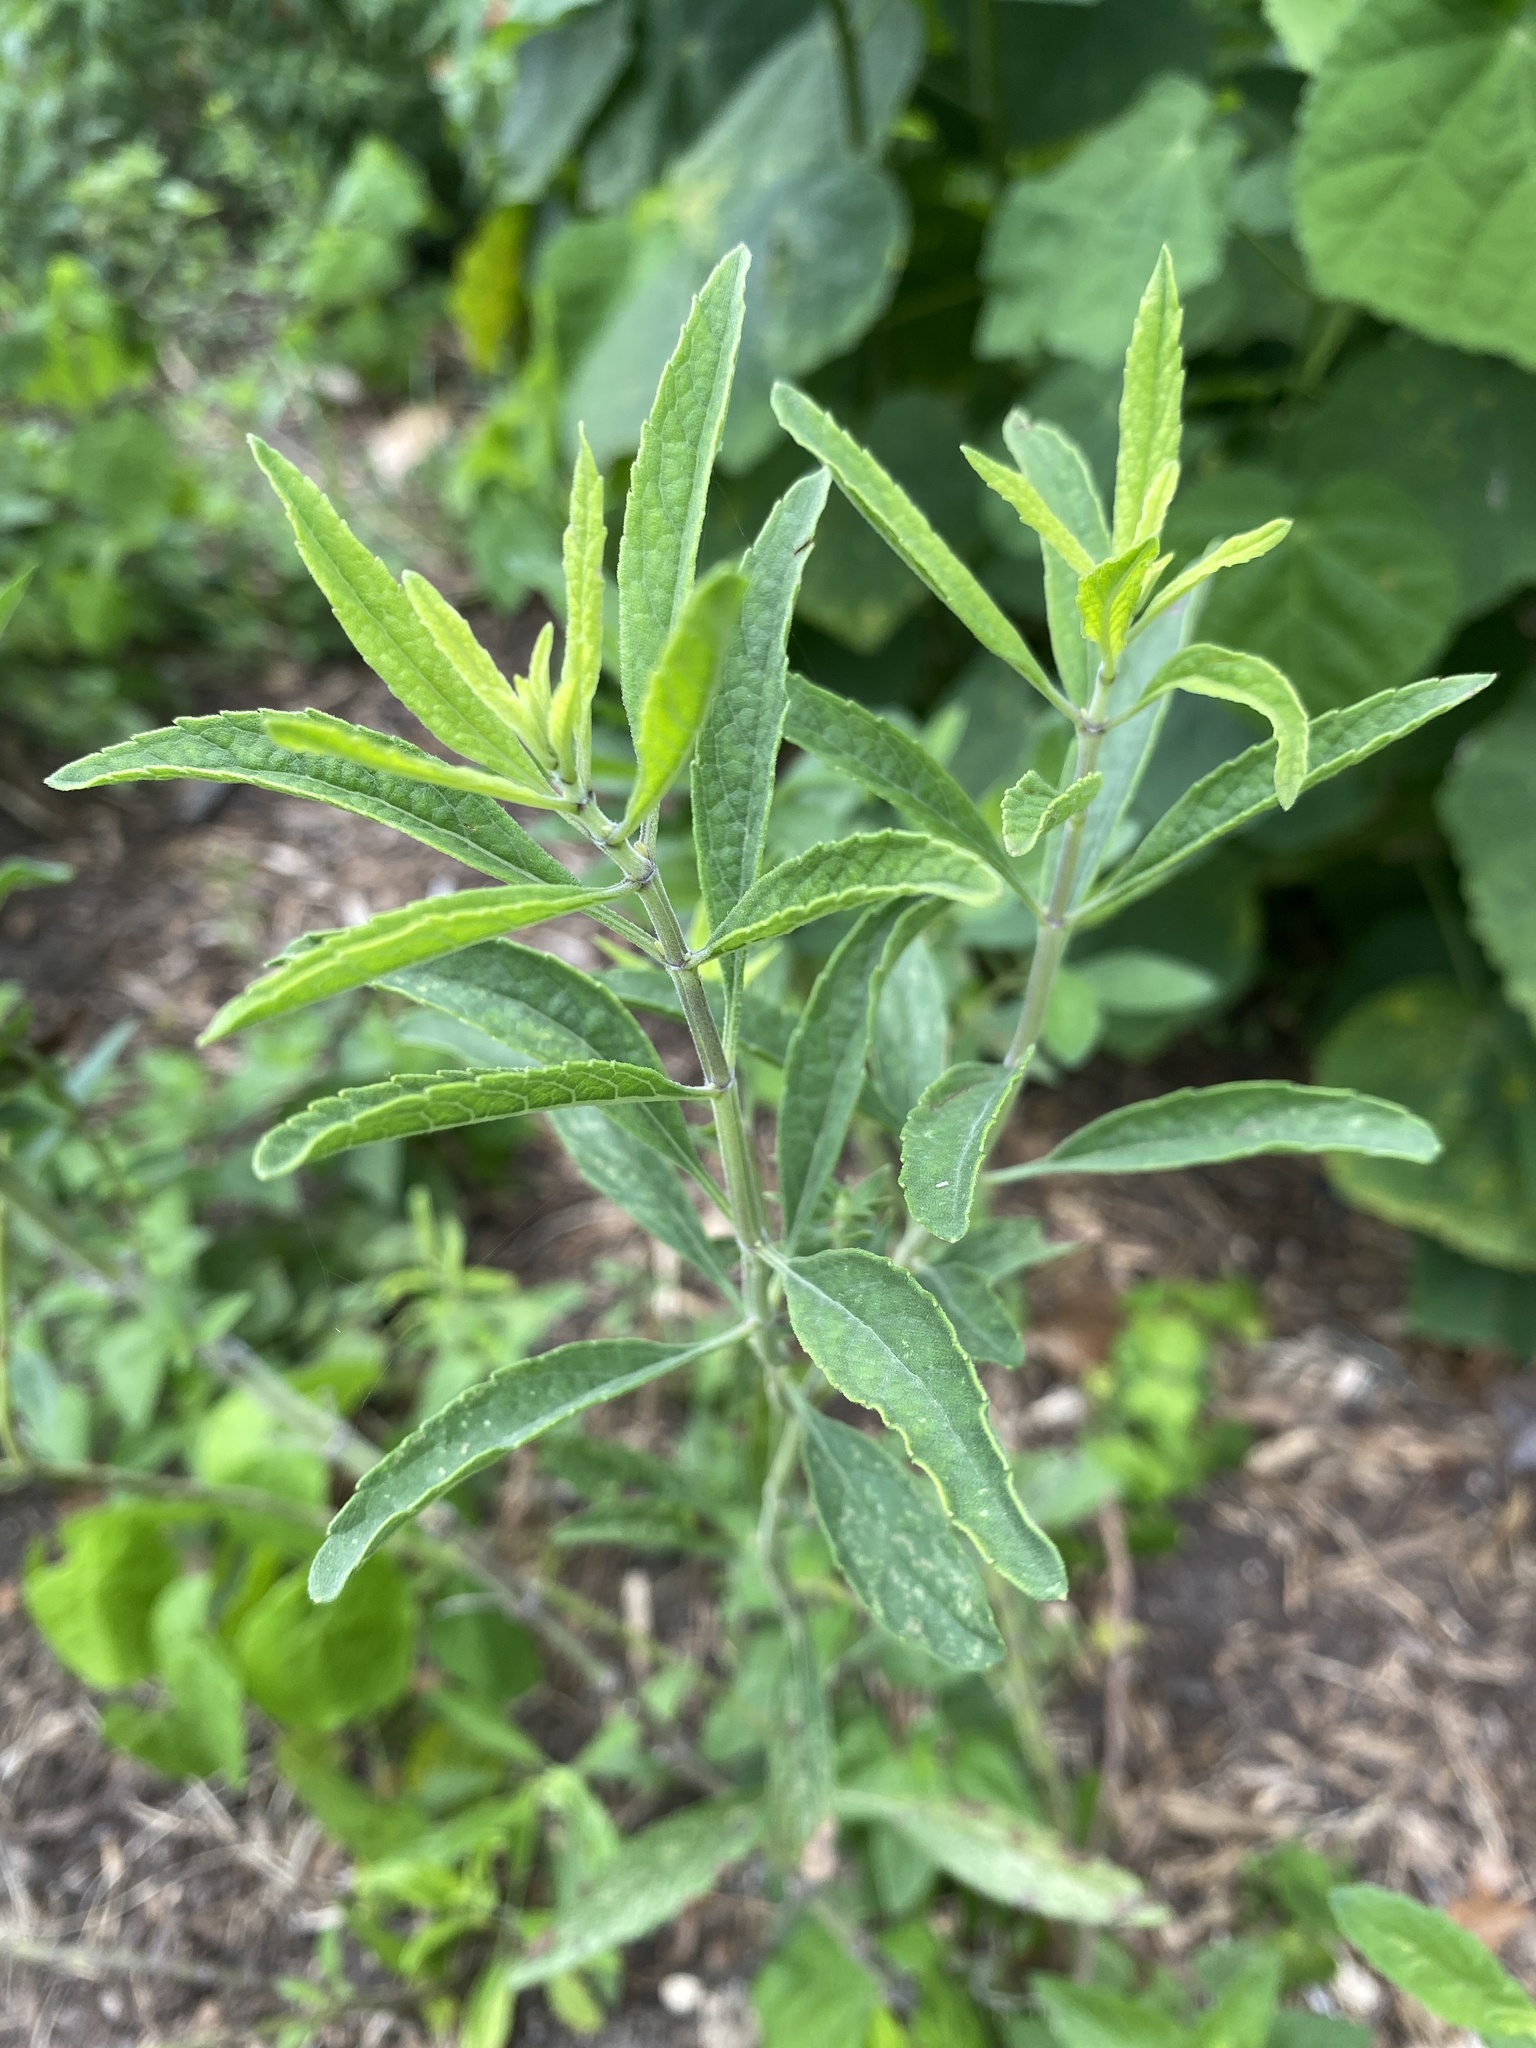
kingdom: Plantae
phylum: Tracheophyta
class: Magnoliopsida
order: Lamiales
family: Lamiaceae
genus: Salvia
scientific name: Salvia azurea
